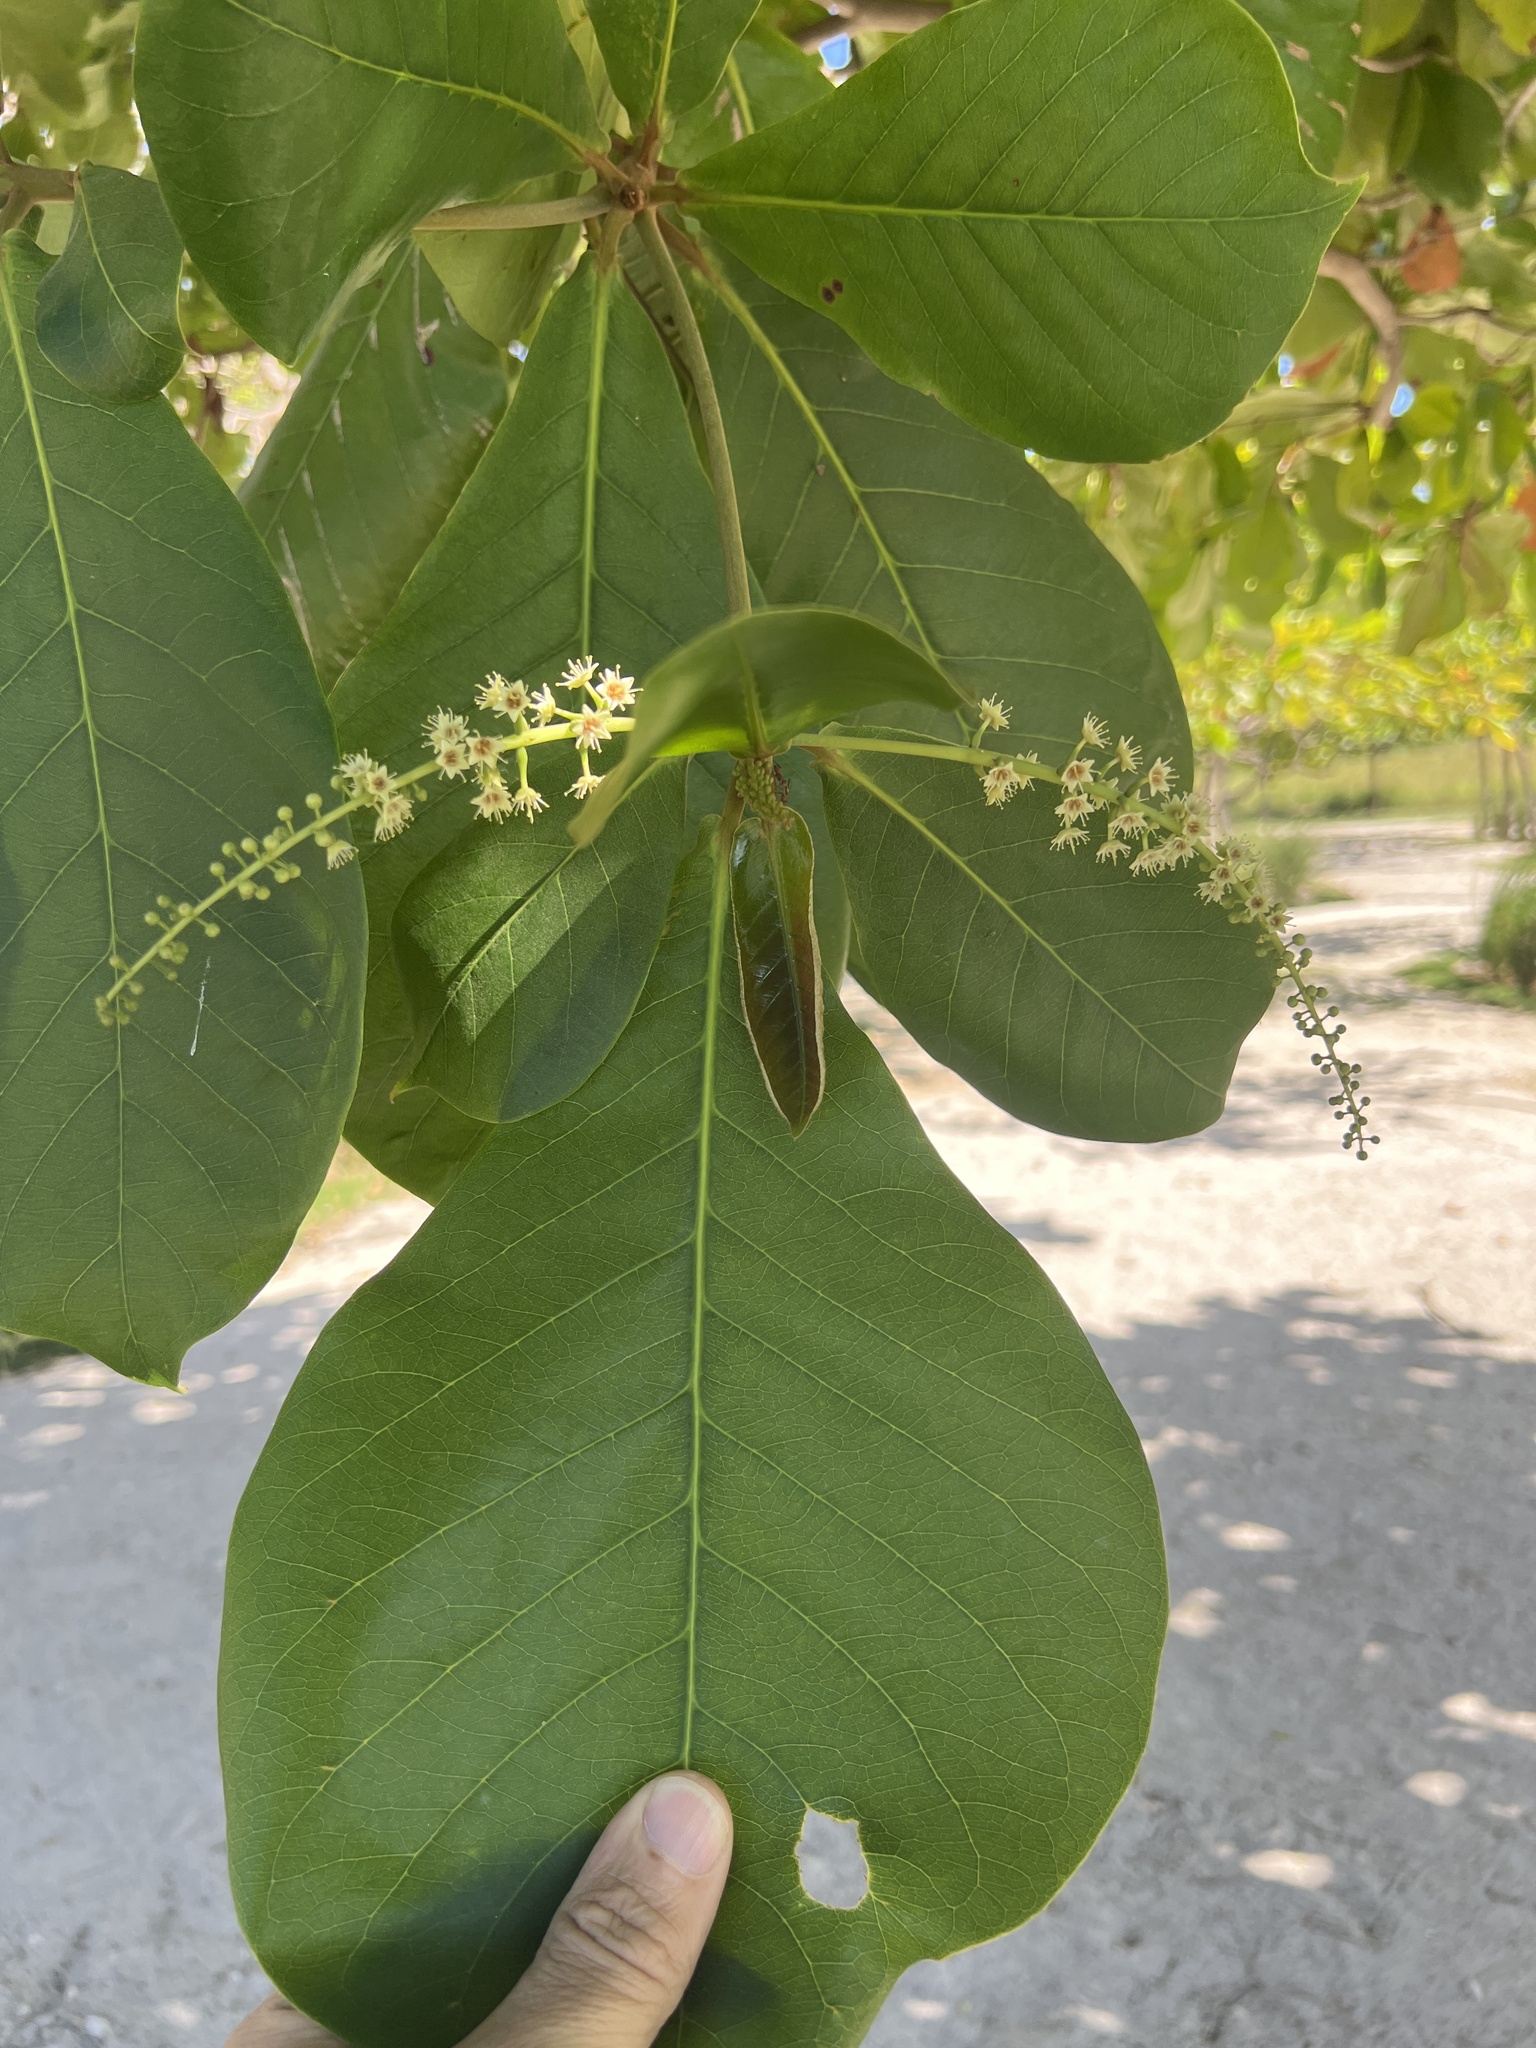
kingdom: Plantae
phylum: Tracheophyta
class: Magnoliopsida
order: Myrtales
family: Combretaceae
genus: Terminalia
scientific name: Terminalia catappa
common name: Tropical almond
